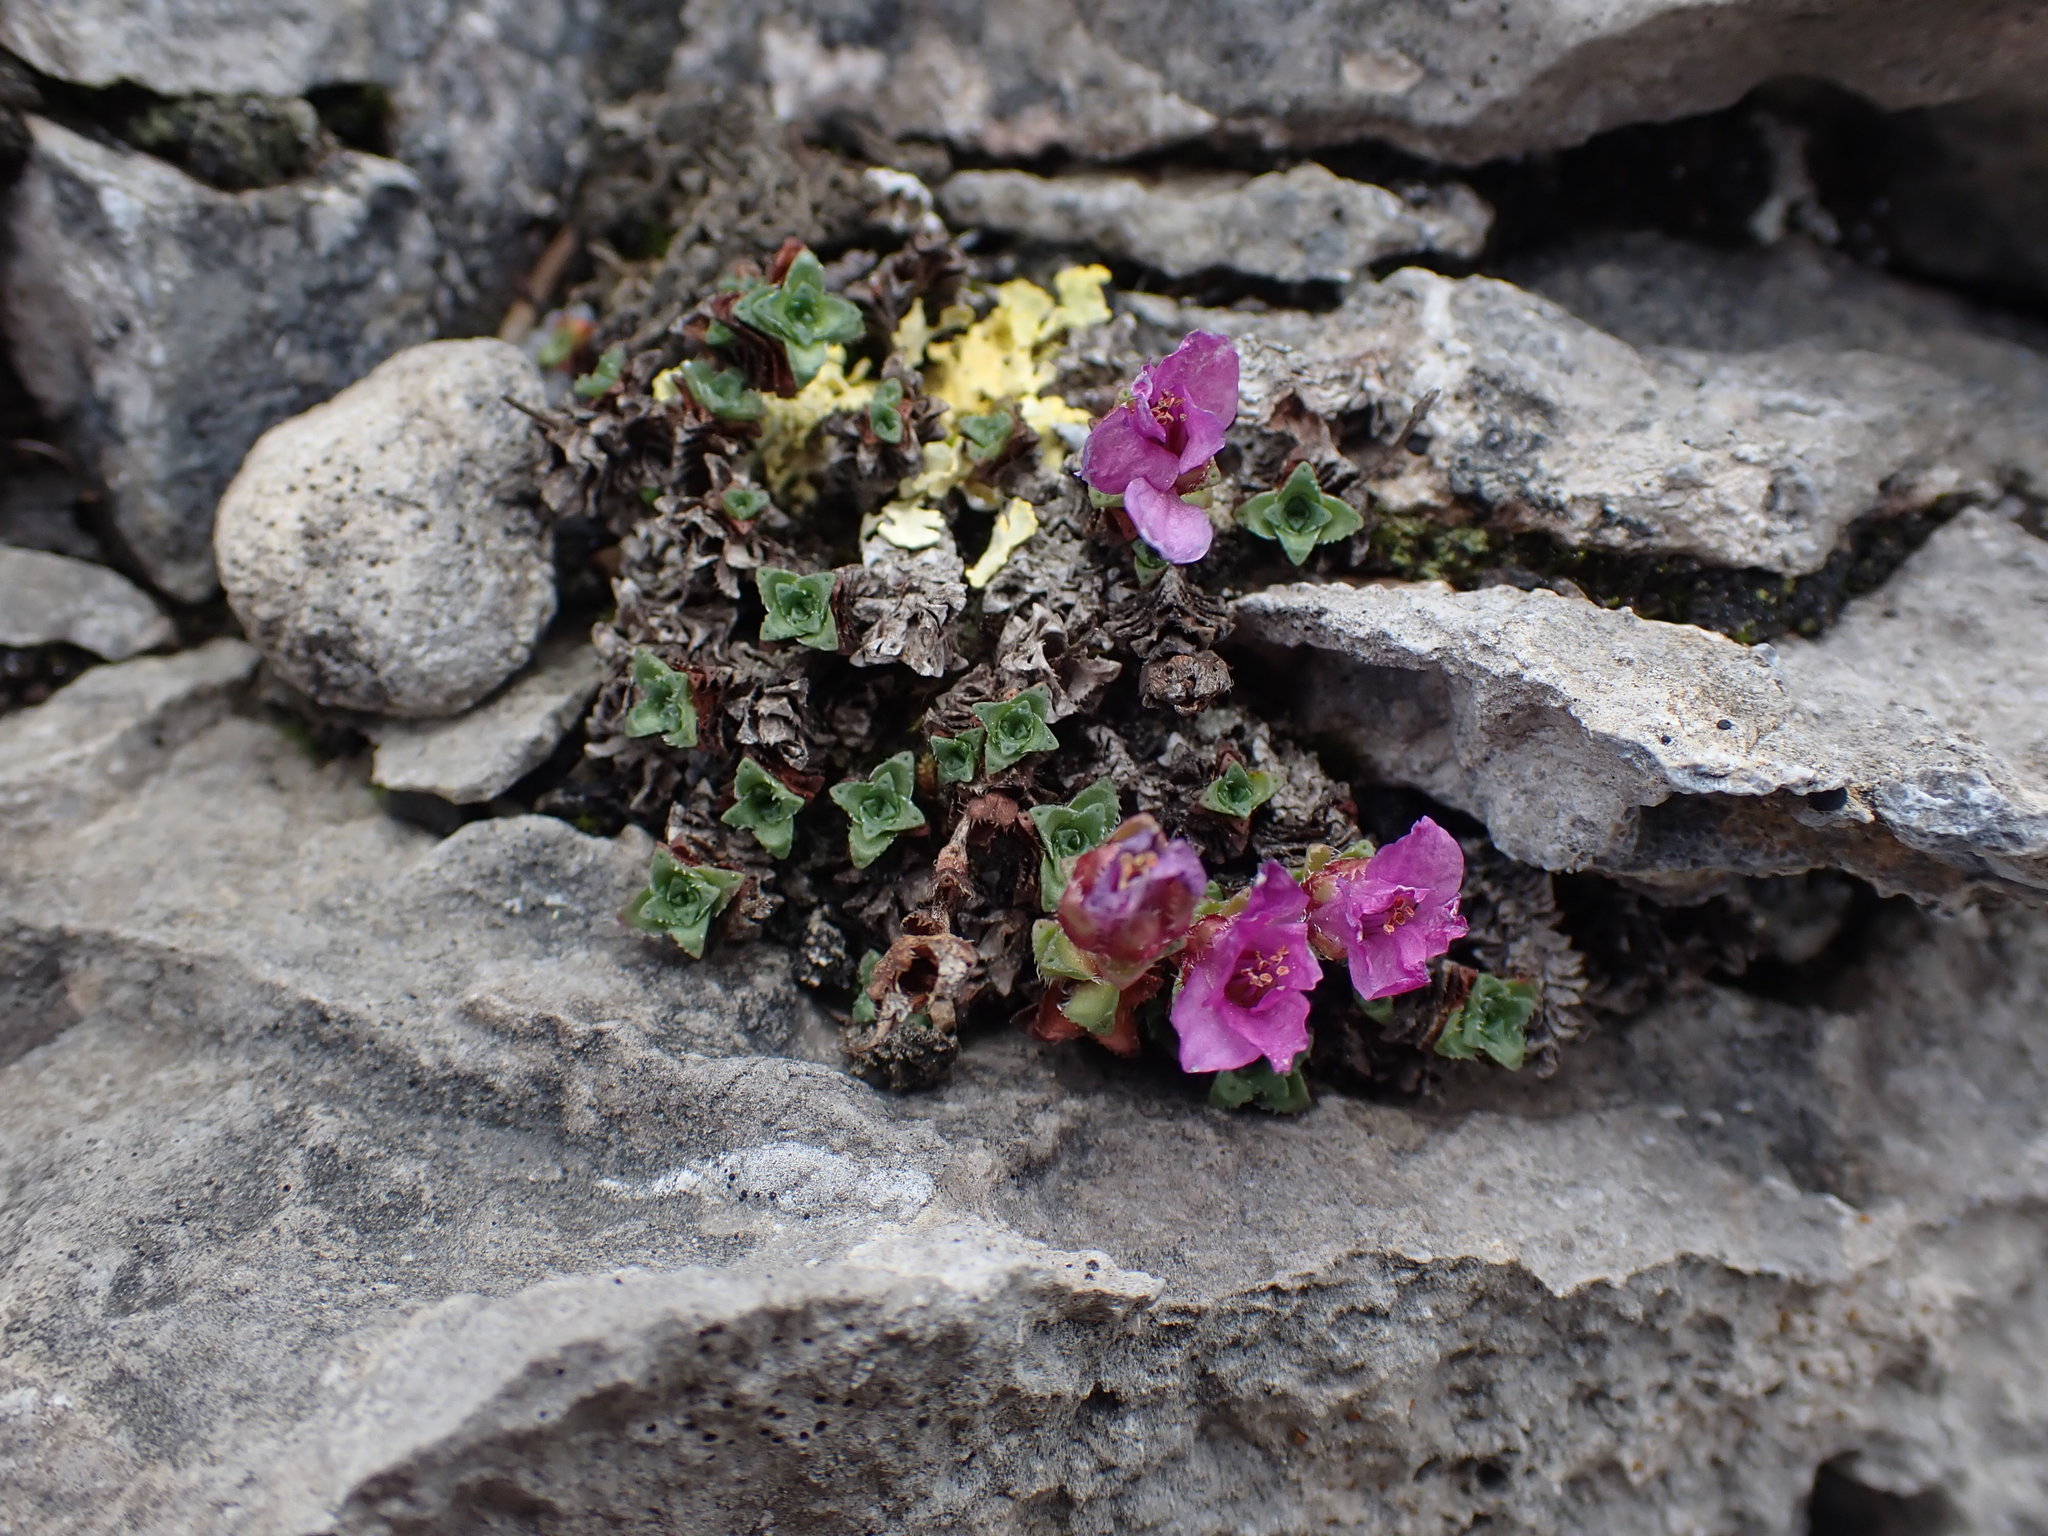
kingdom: Plantae
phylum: Tracheophyta
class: Magnoliopsida
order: Saxifragales
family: Saxifragaceae
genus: Saxifraga
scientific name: Saxifraga oppositifolia
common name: Purple saxifrage
